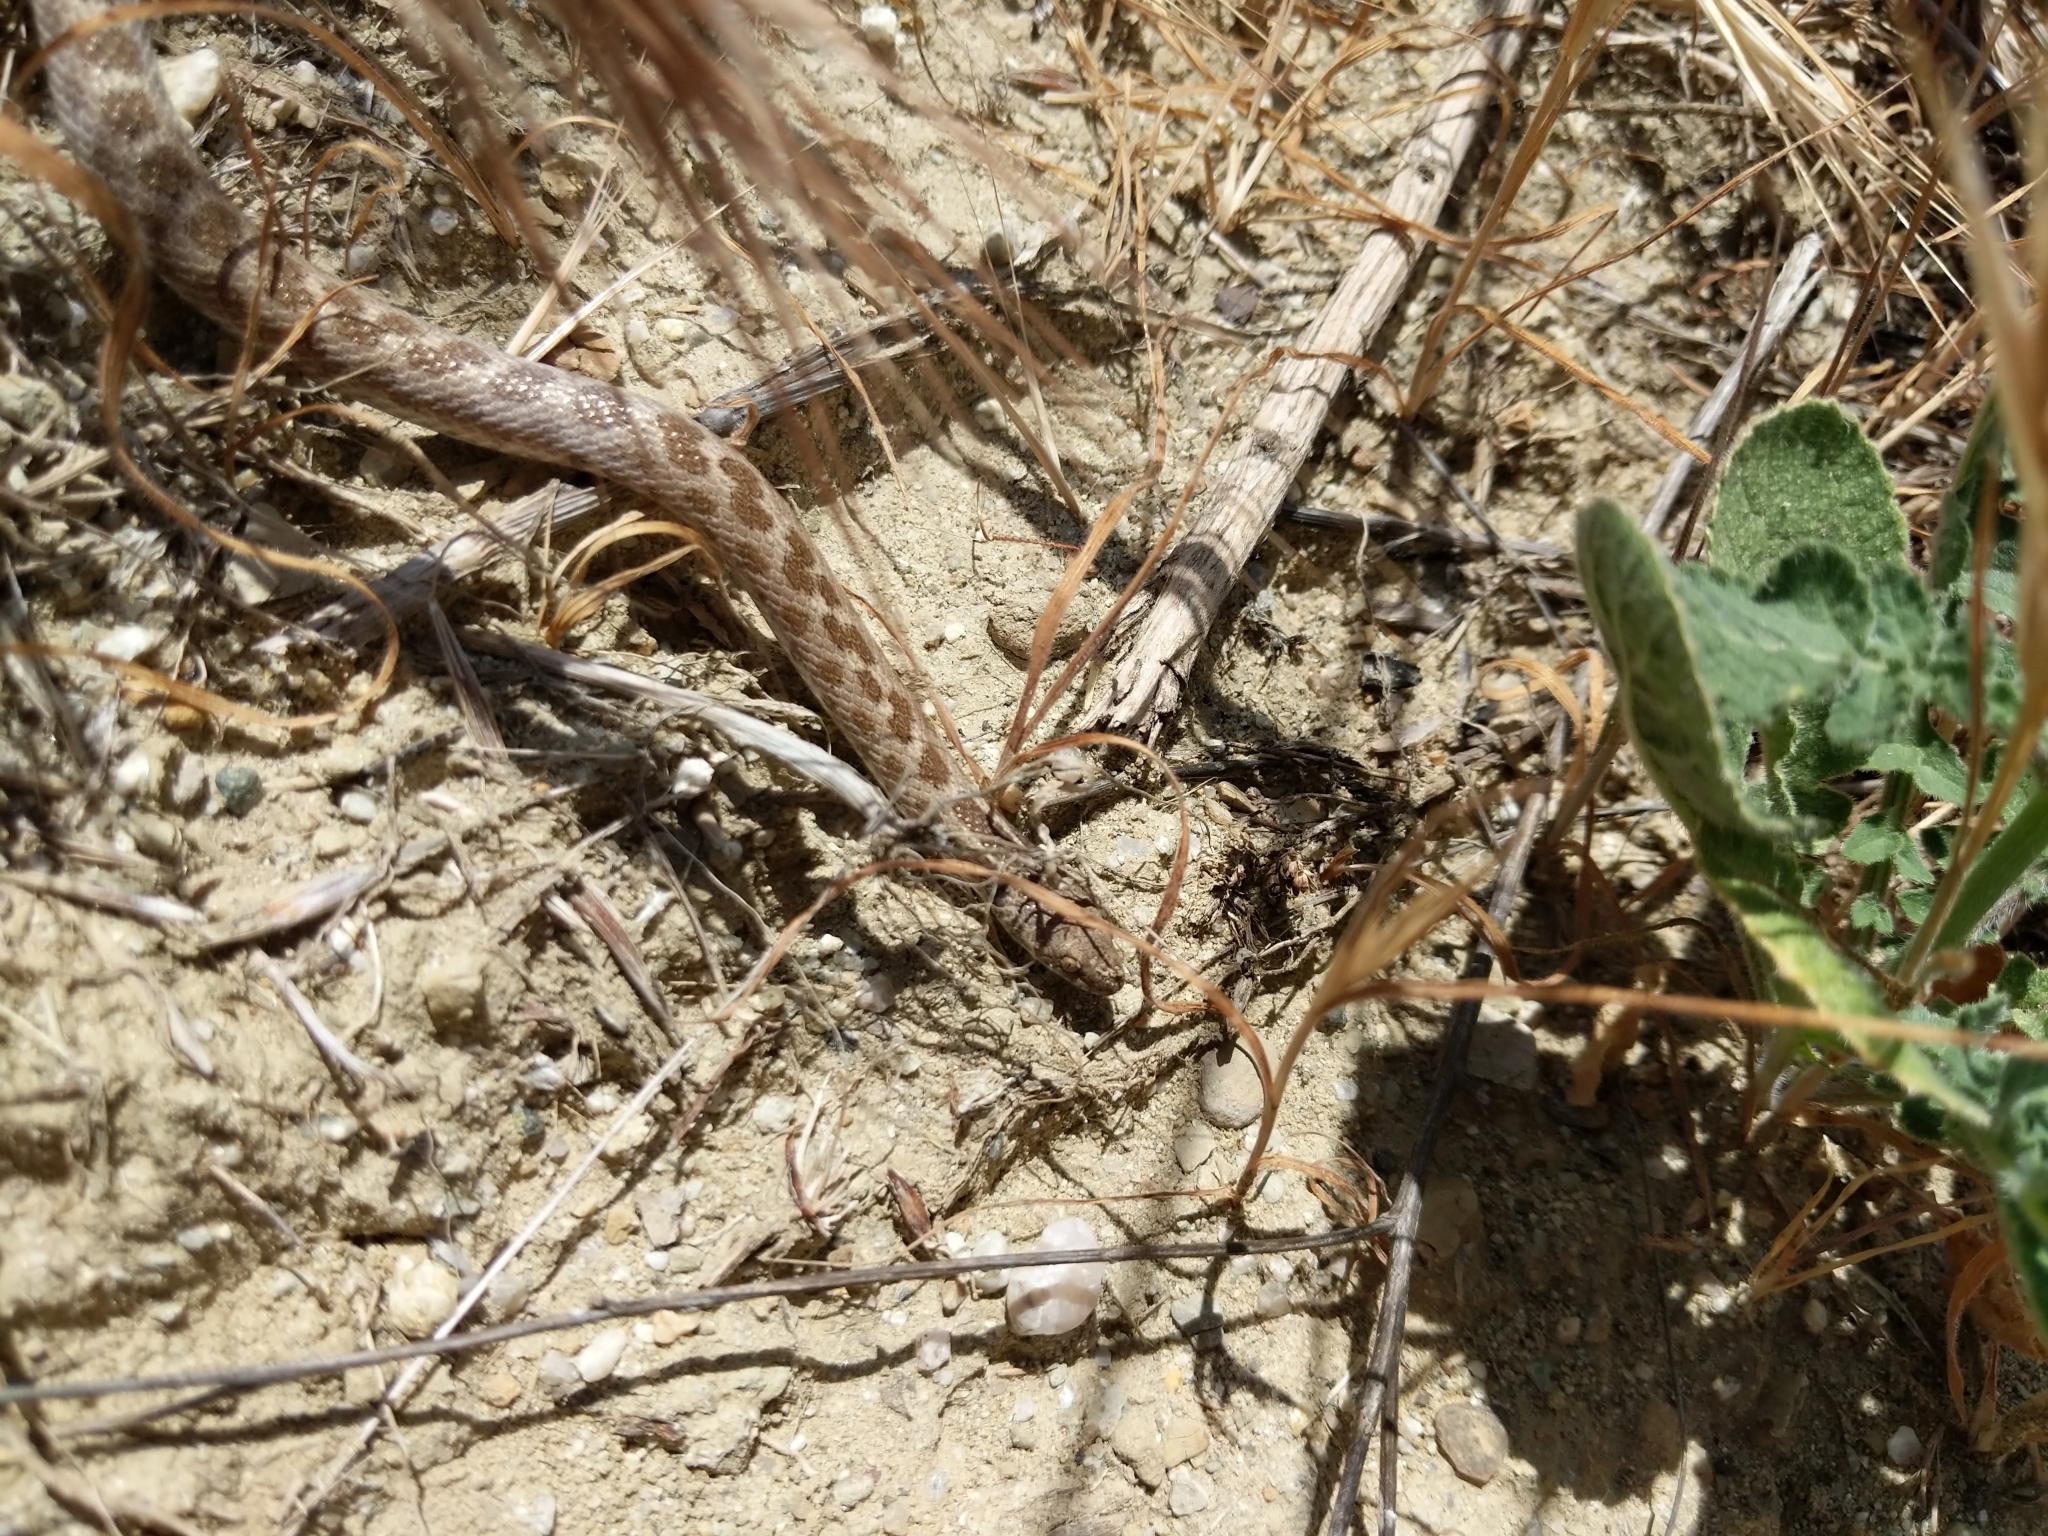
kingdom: Animalia
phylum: Chordata
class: Squamata
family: Colubridae
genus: Hypsiglena
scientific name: Hypsiglena ochrorhynchus
